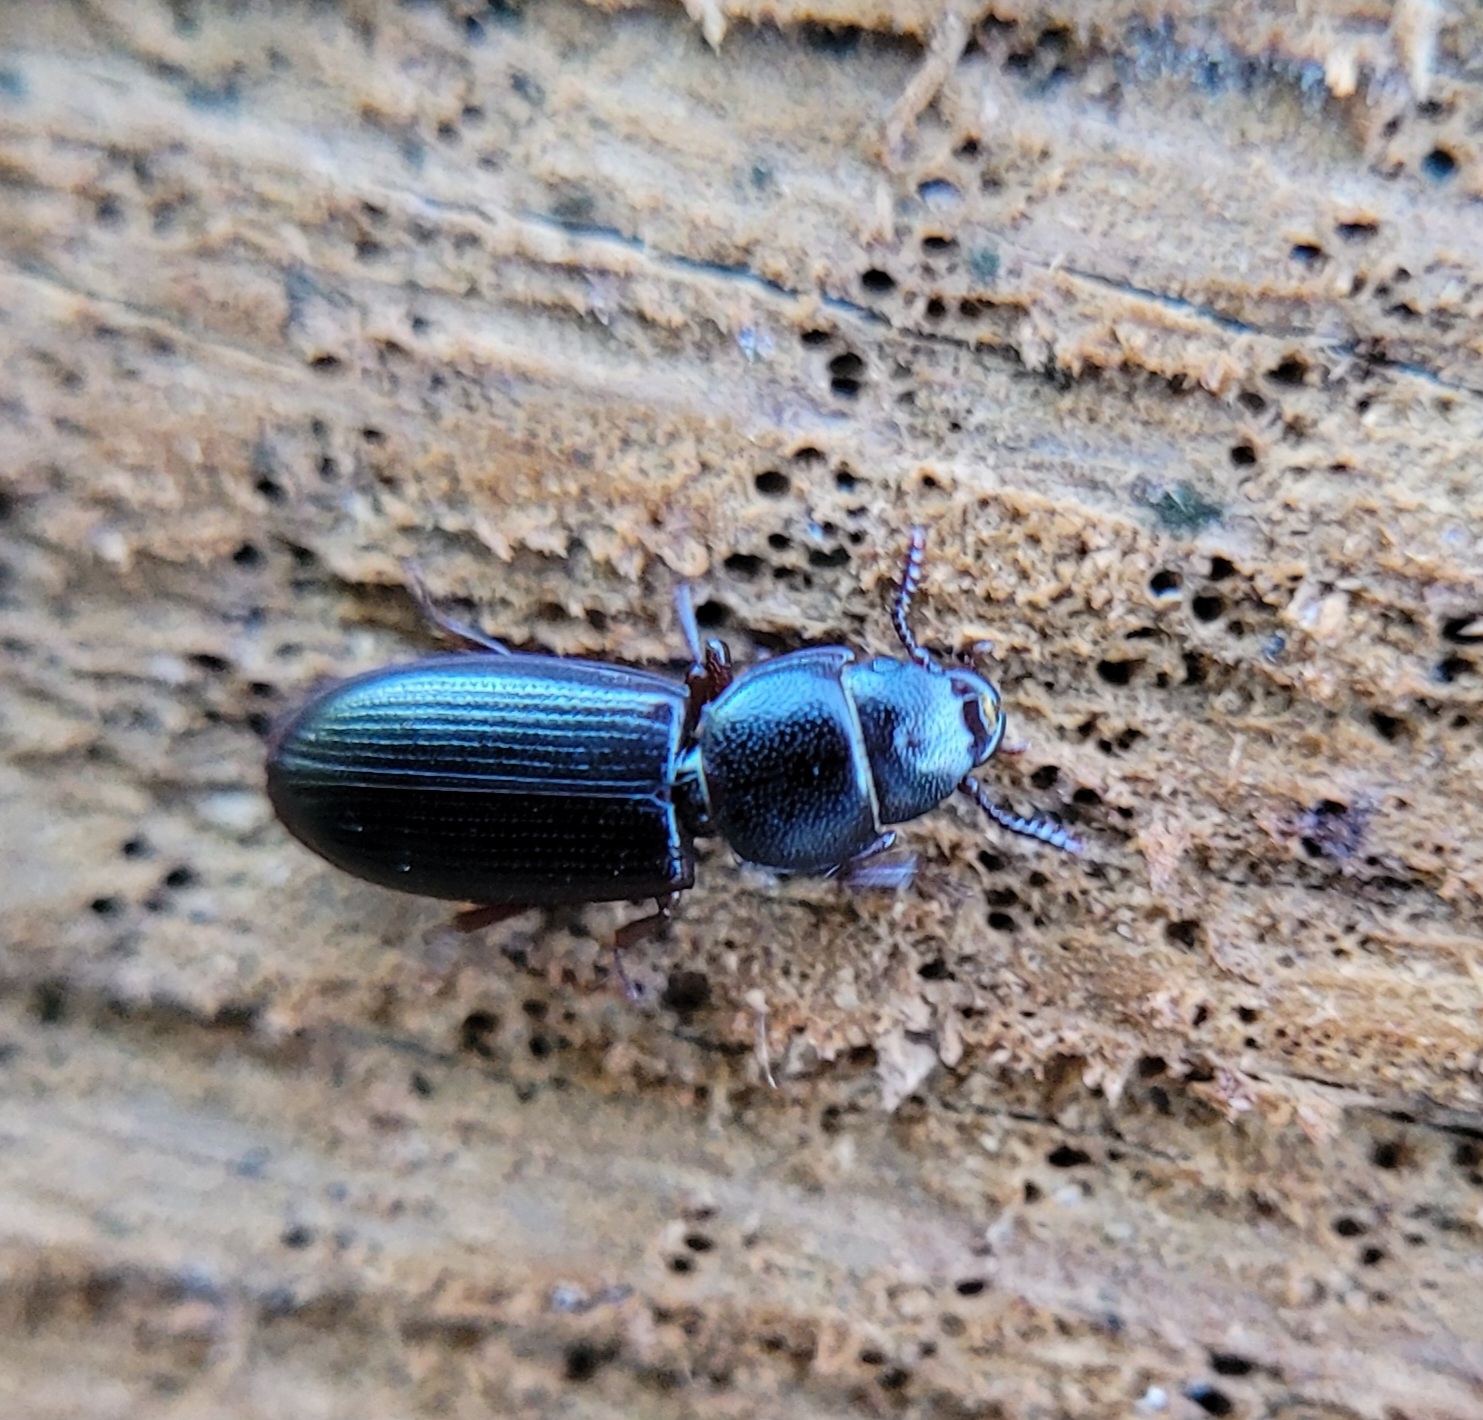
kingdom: Animalia
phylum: Arthropoda
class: Insecta
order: Coleoptera
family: Trogossitidae
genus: Tenebroides
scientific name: Tenebroides fuscus
